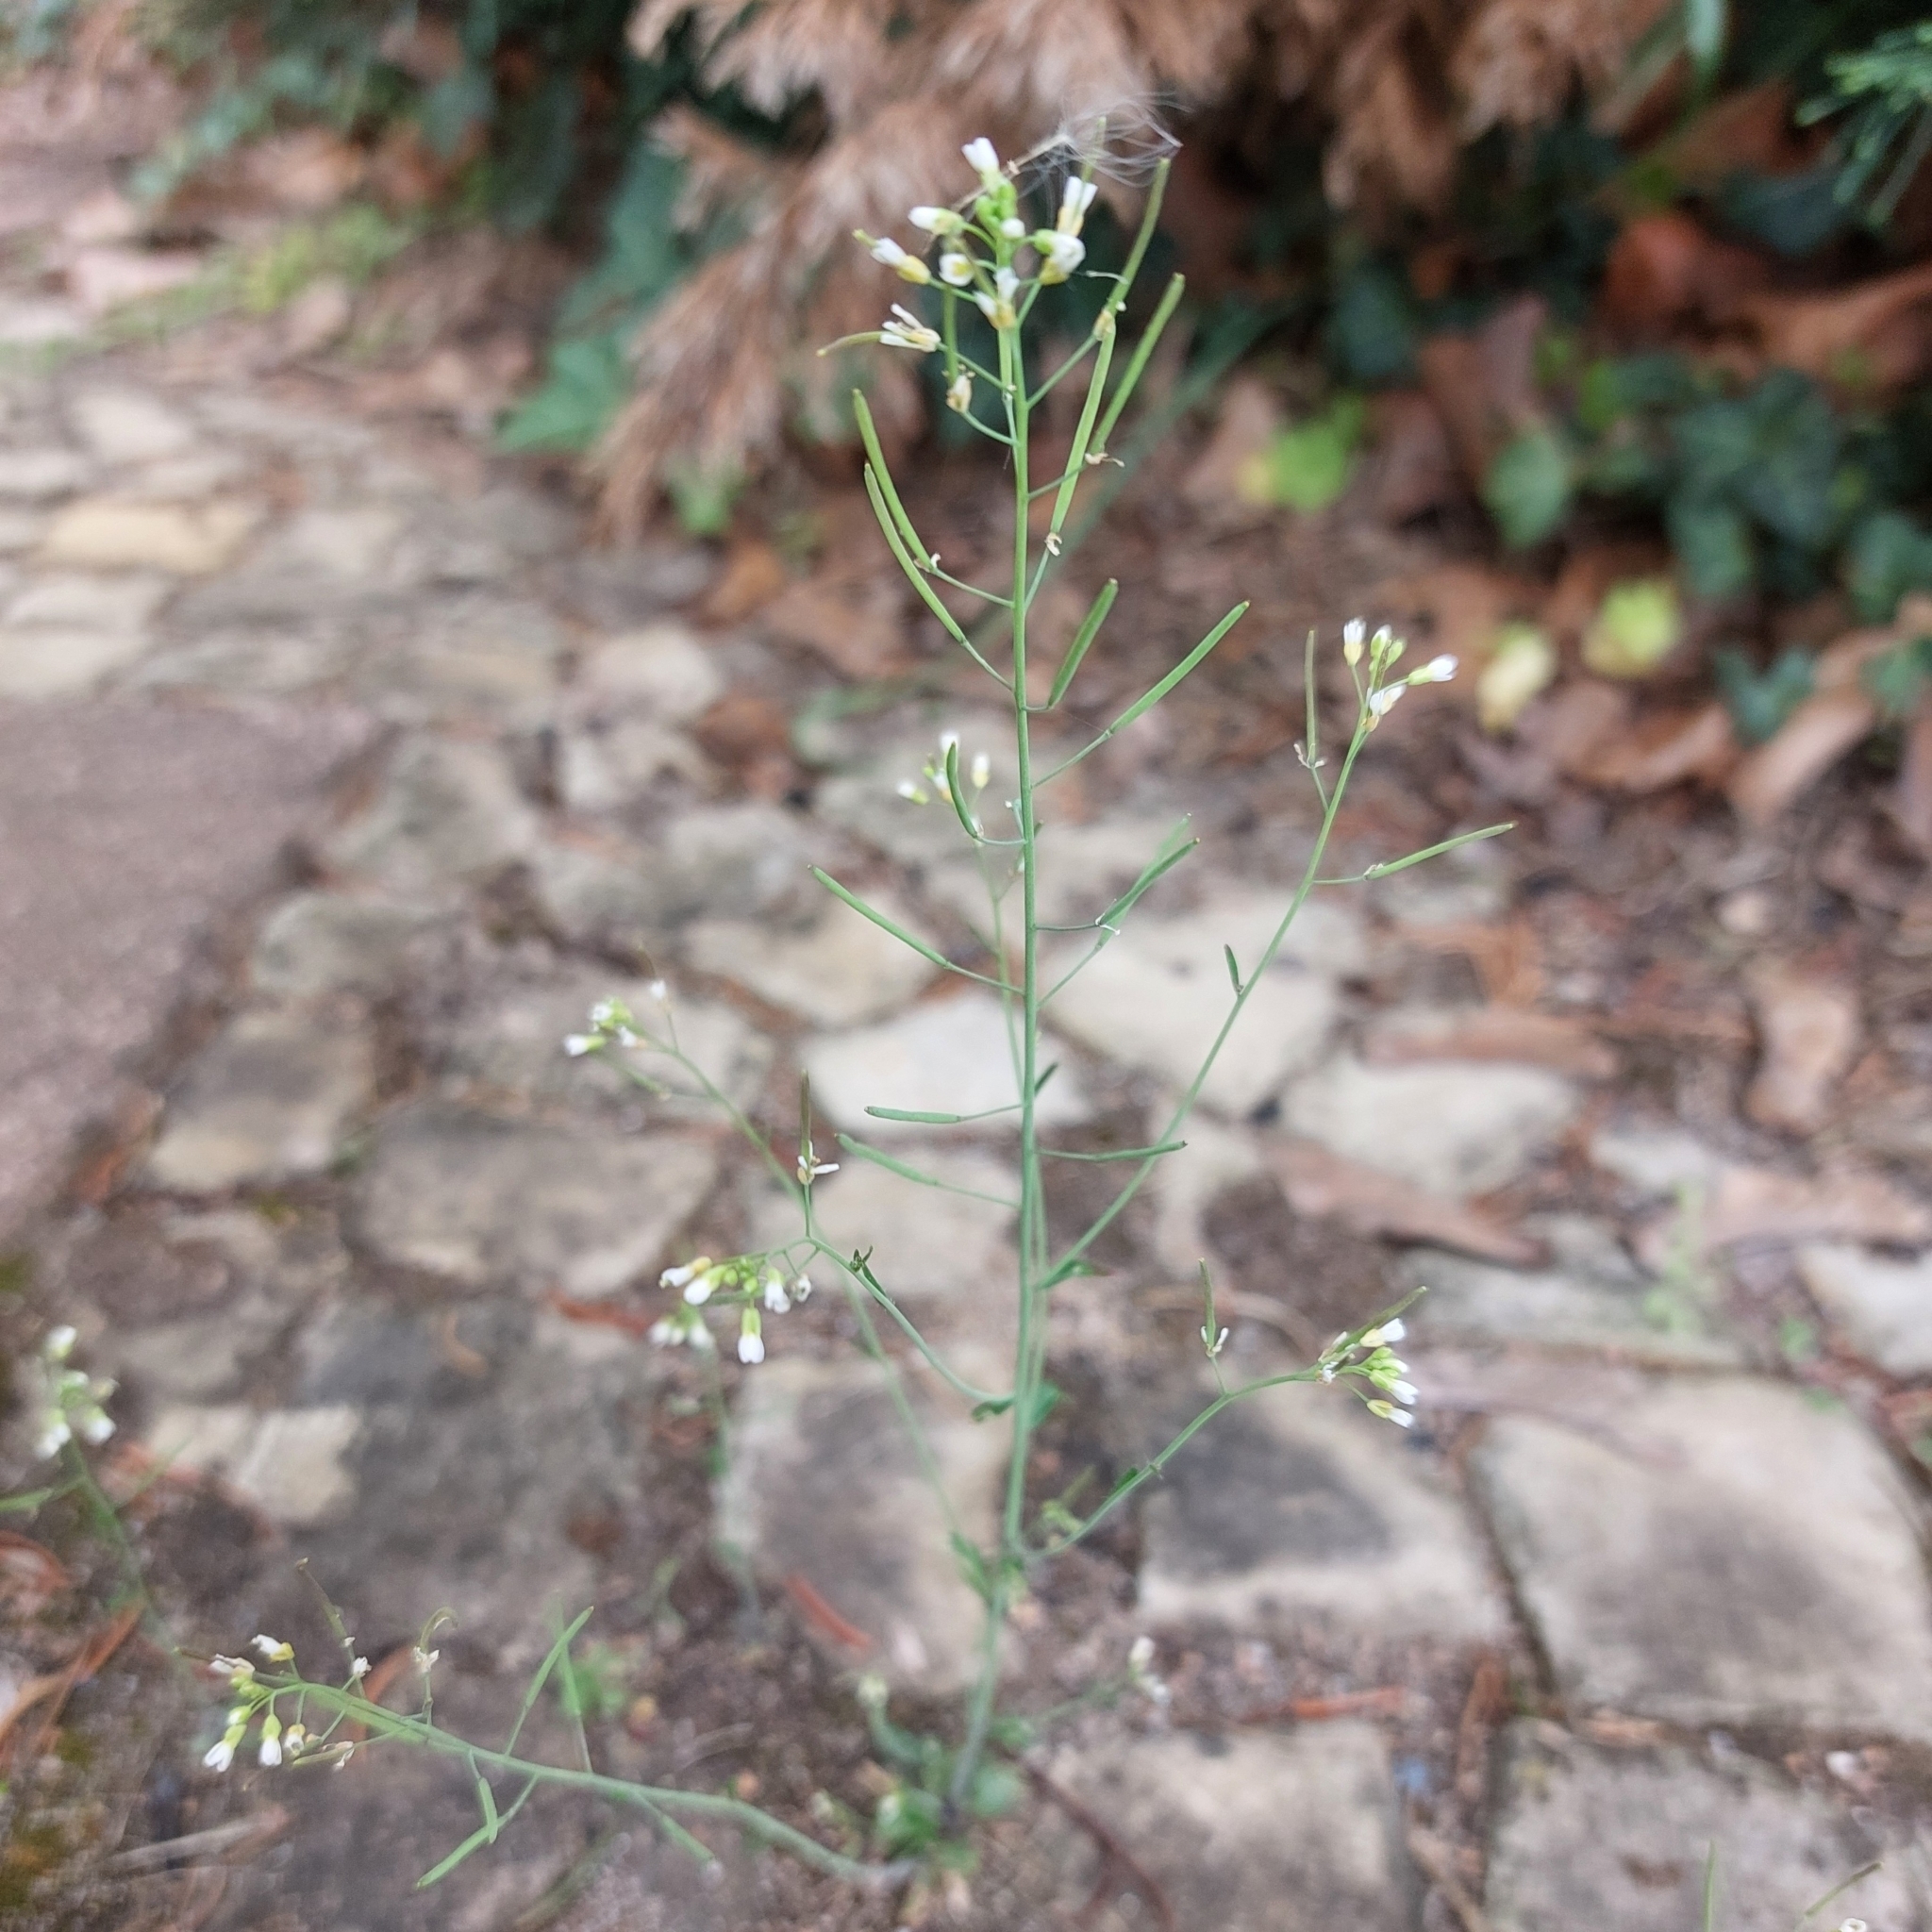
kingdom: Plantae
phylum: Tracheophyta
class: Magnoliopsida
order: Brassicales
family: Brassicaceae
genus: Arabidopsis
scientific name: Arabidopsis thaliana
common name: Thale cress
